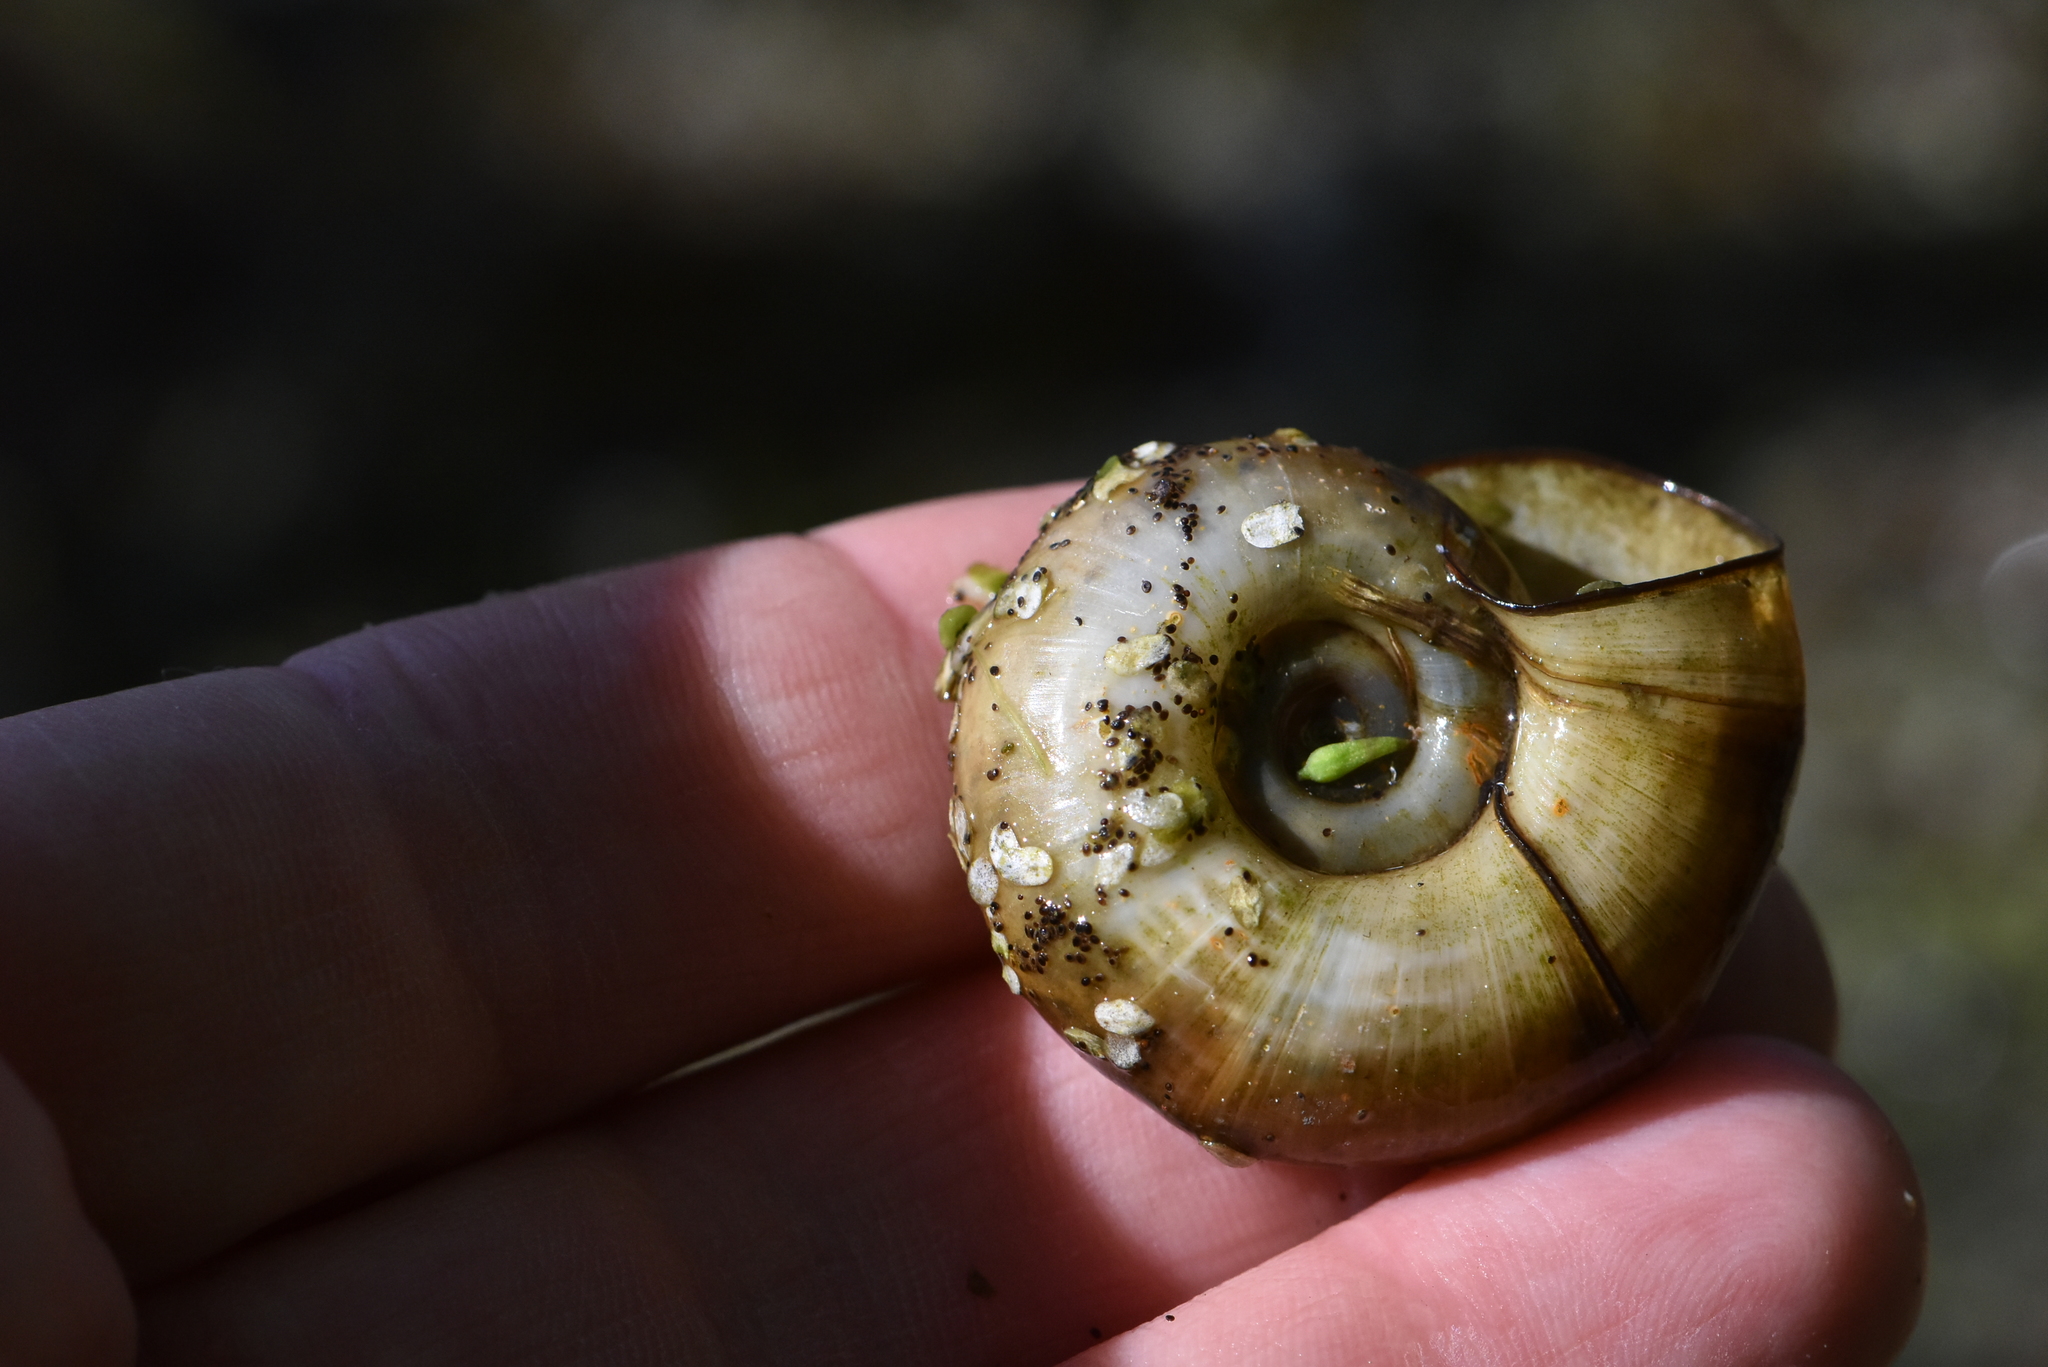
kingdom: Animalia
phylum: Mollusca
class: Gastropoda
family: Planorbidae
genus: Planorbarius
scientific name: Planorbarius corneus
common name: Great ramshorn
